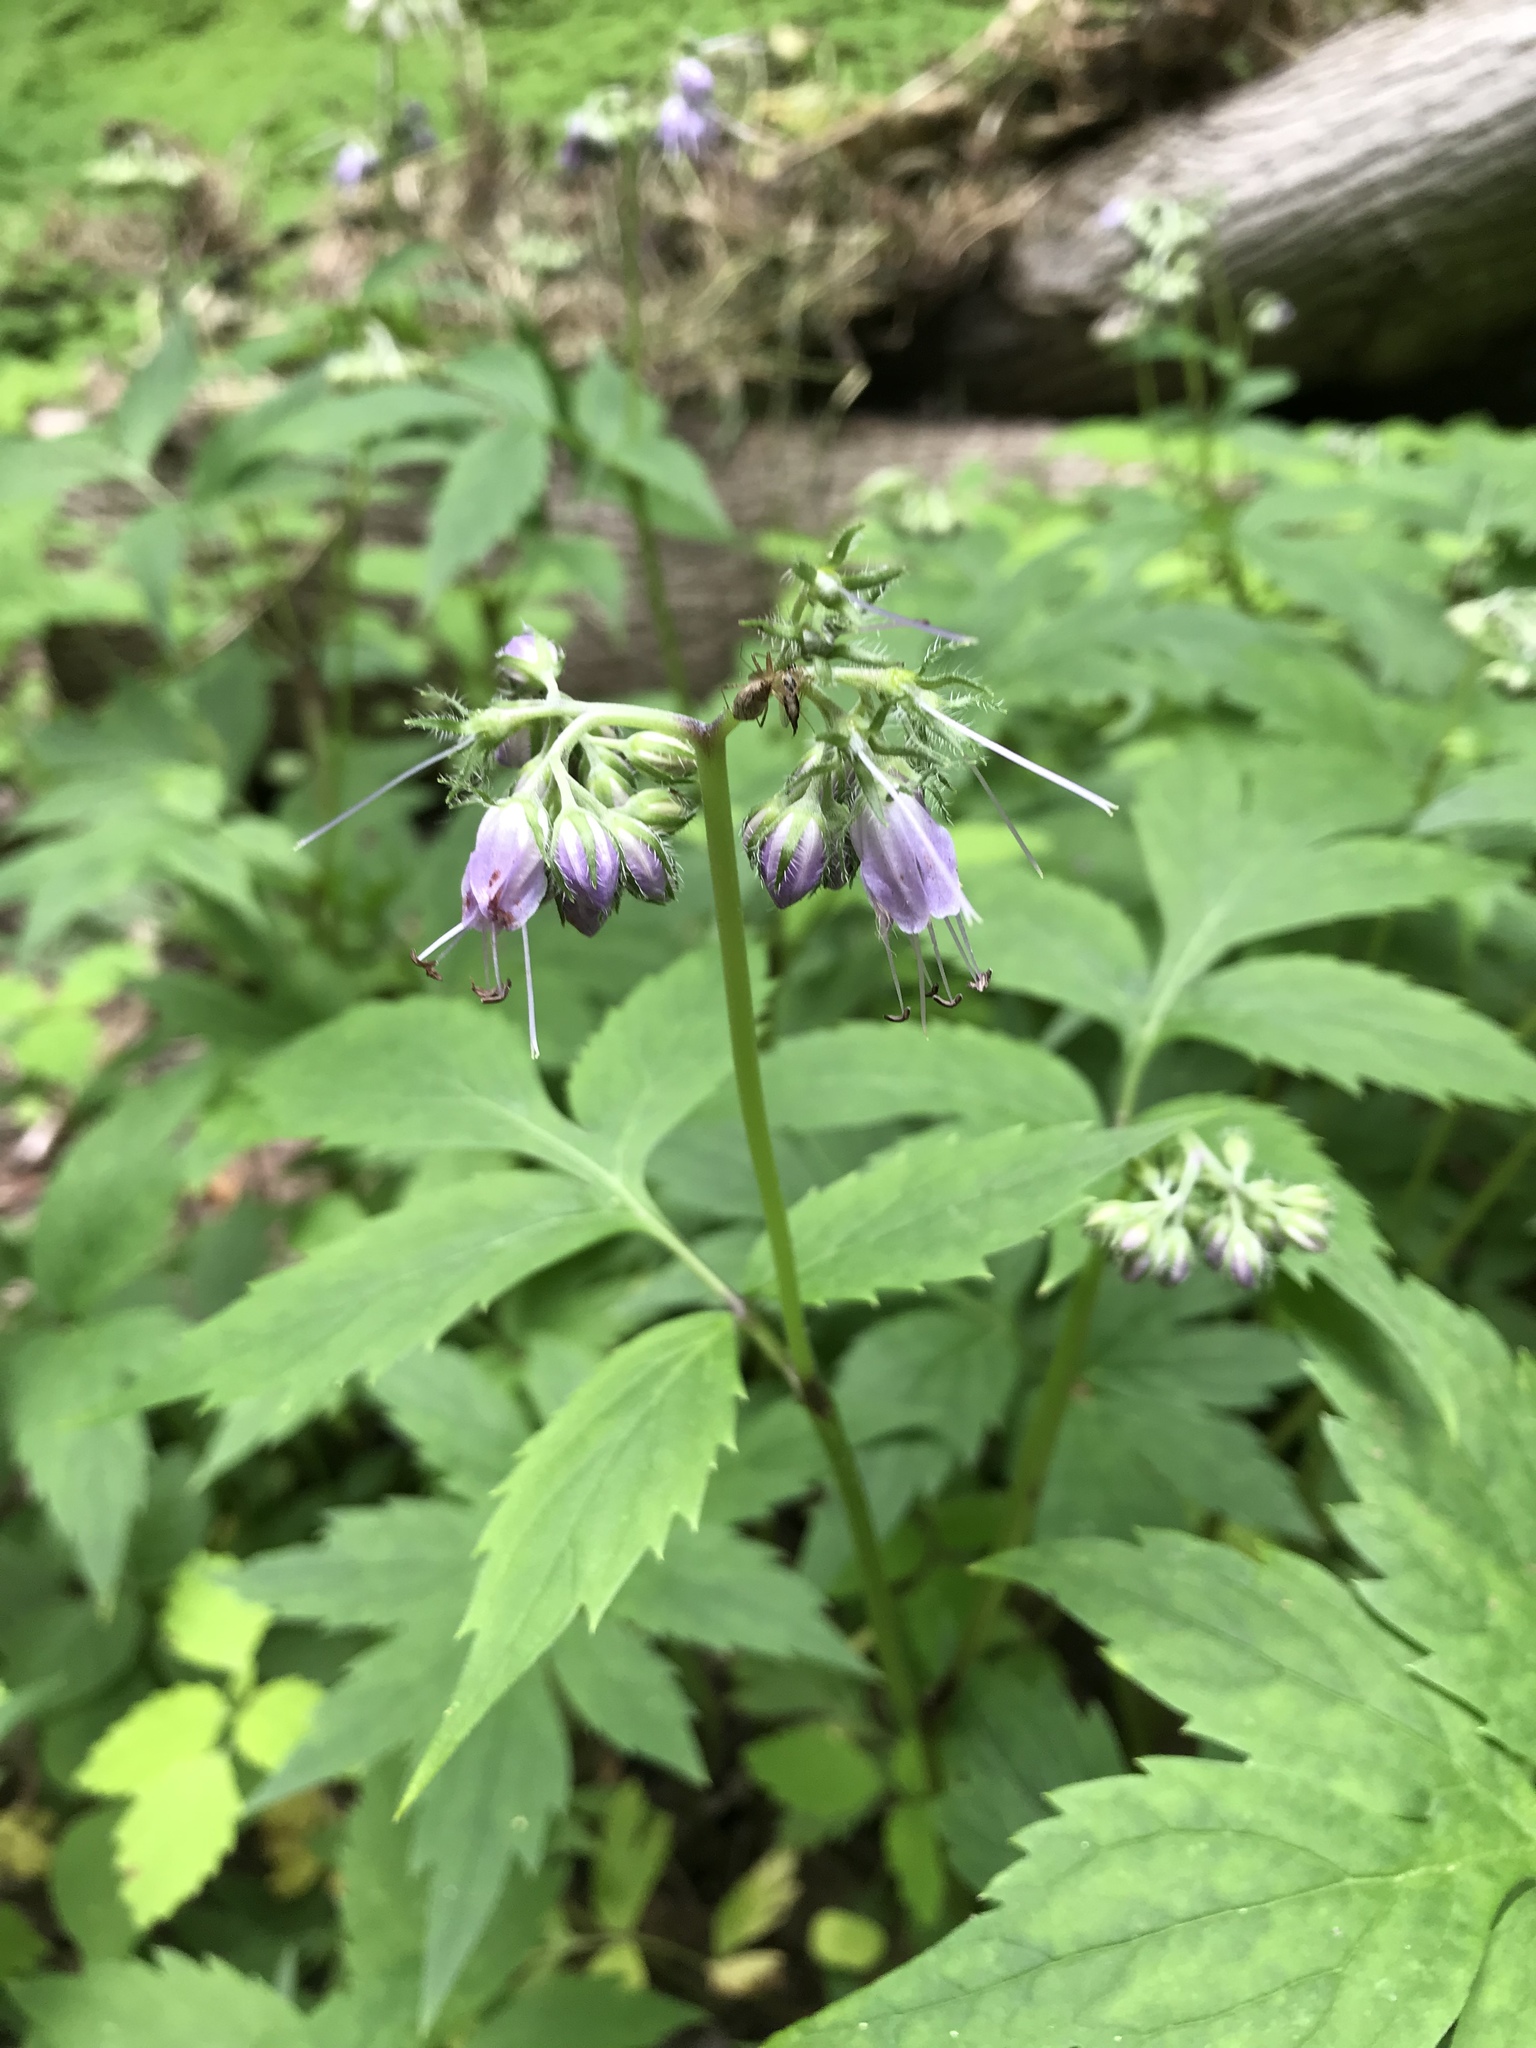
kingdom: Plantae
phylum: Tracheophyta
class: Magnoliopsida
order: Boraginales
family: Hydrophyllaceae
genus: Hydrophyllum
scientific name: Hydrophyllum virginianum
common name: Virginia waterleaf
